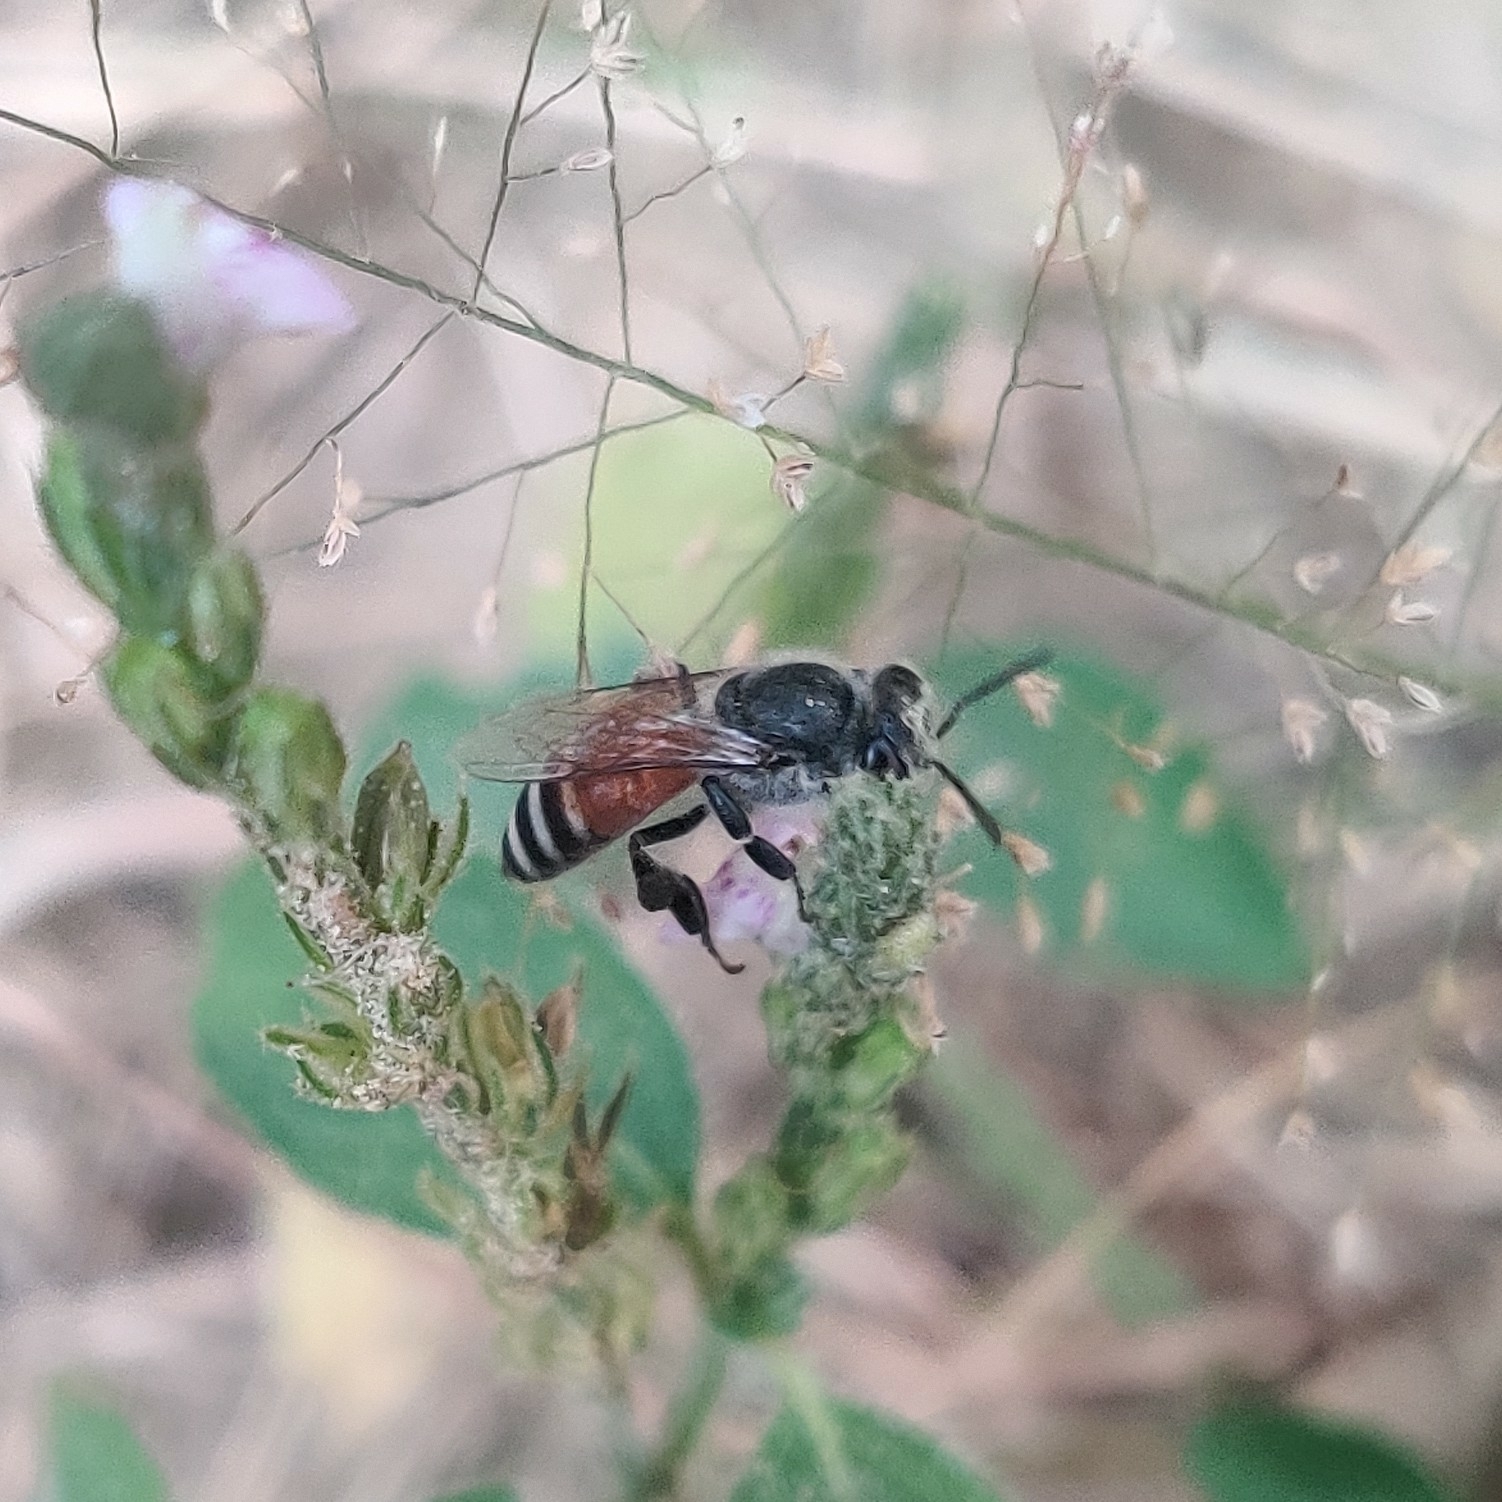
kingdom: Animalia
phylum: Arthropoda
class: Insecta
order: Hymenoptera
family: Apidae
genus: Apis
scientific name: Apis florea
